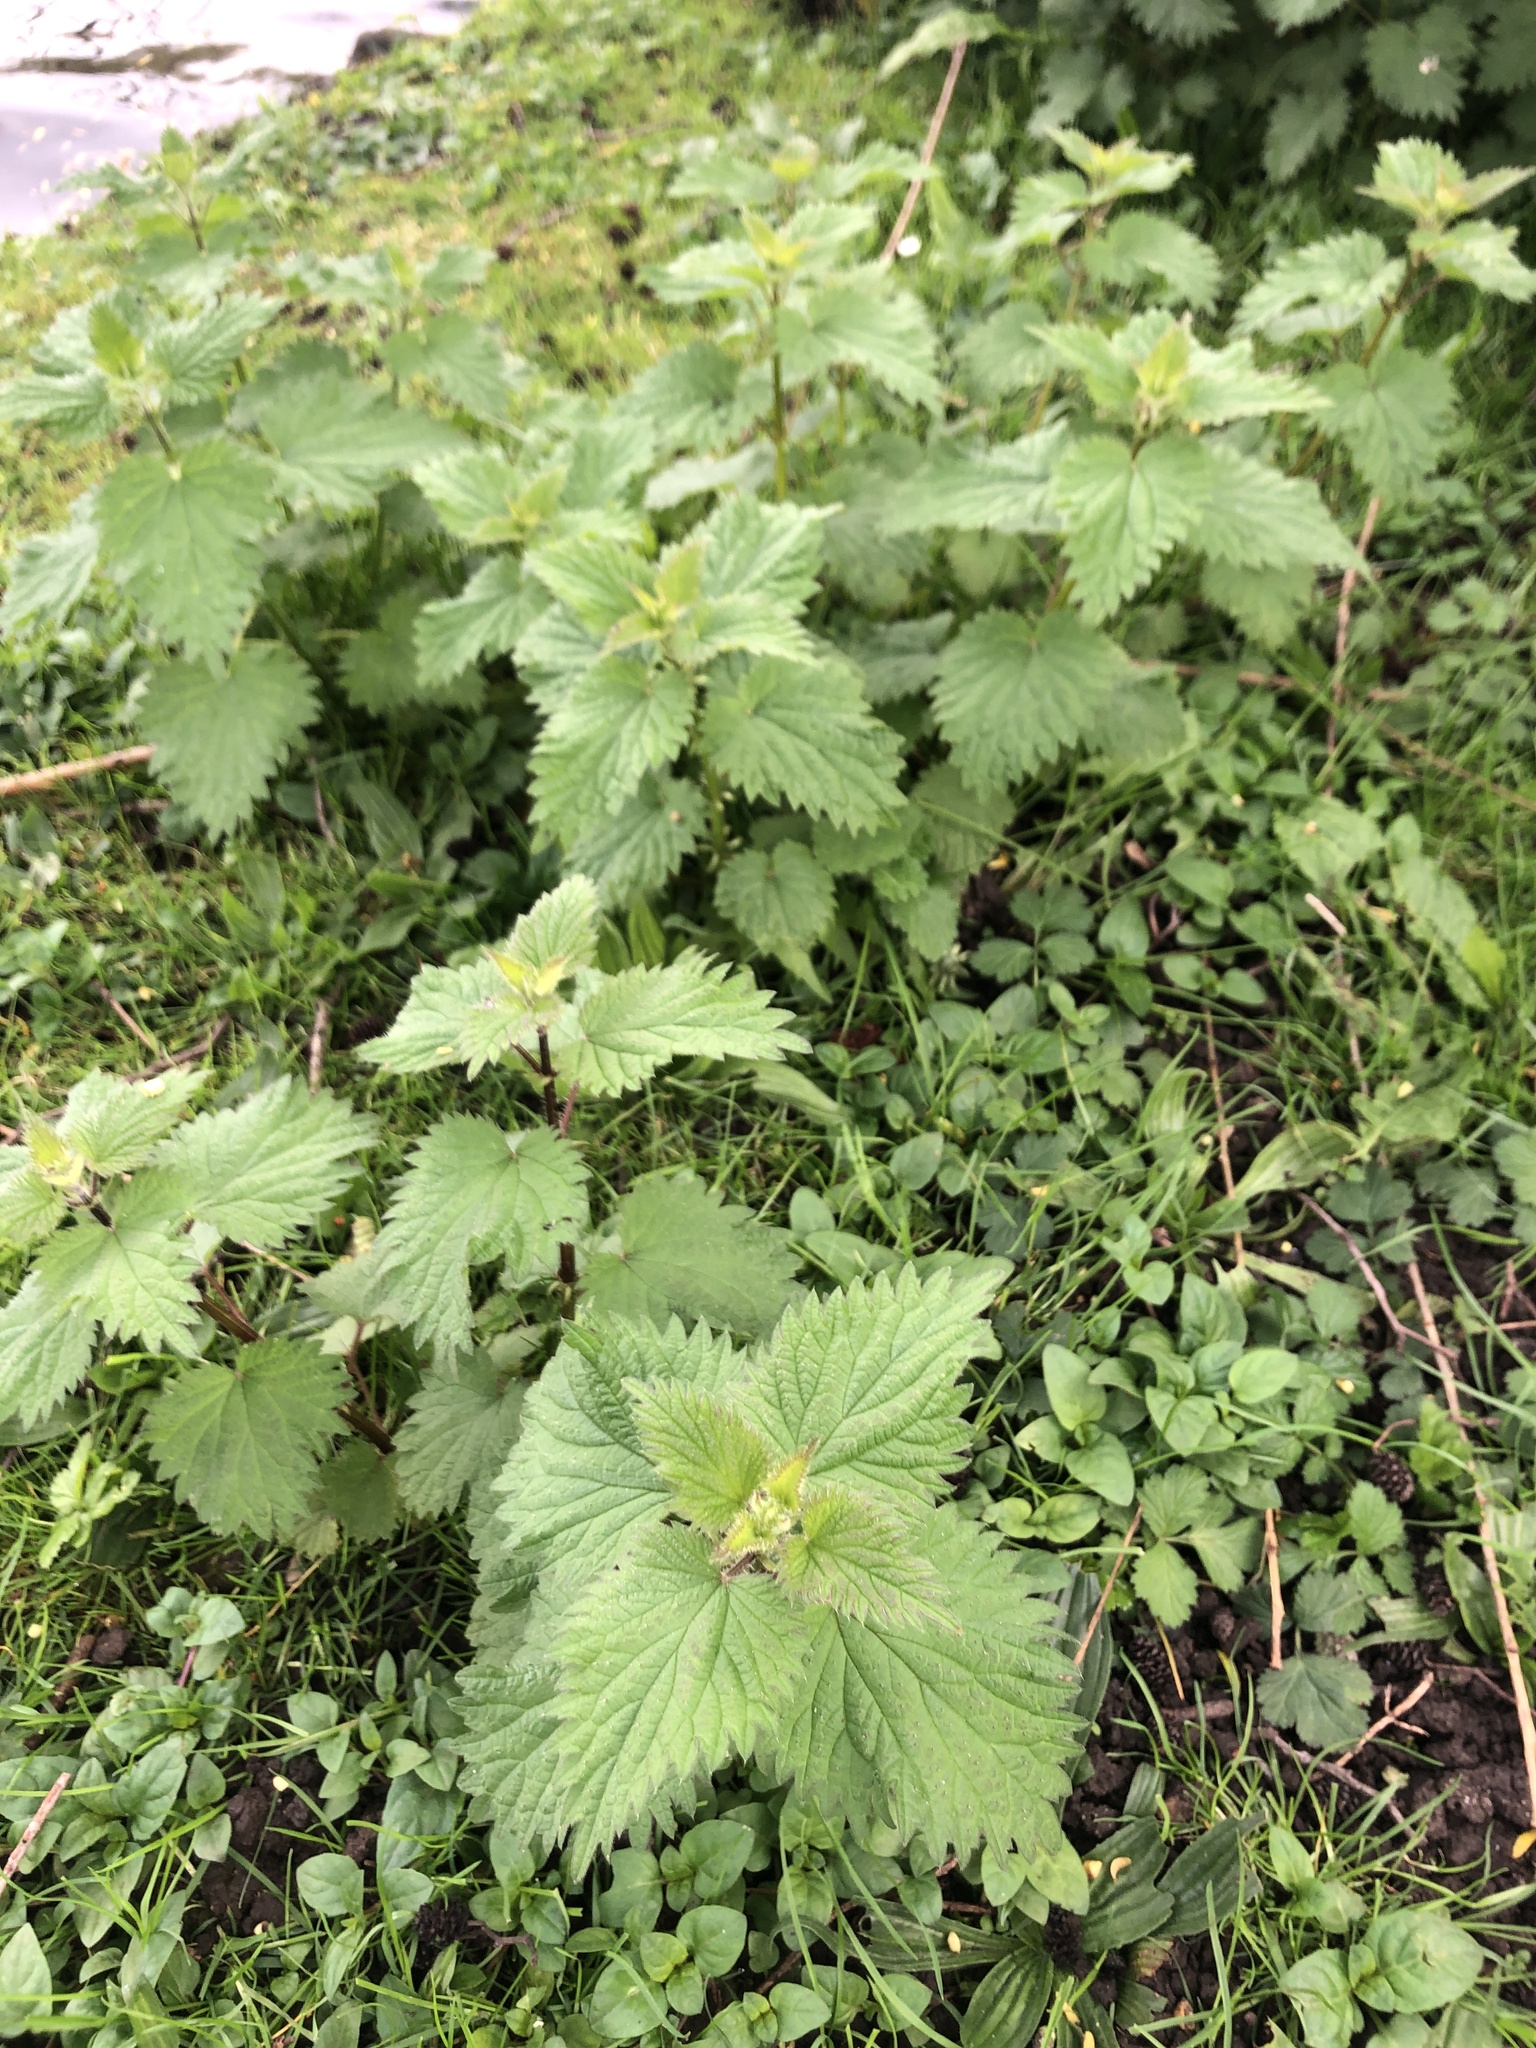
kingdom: Plantae
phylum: Tracheophyta
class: Magnoliopsida
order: Rosales
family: Urticaceae
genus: Urtica
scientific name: Urtica dioica
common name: Common nettle
